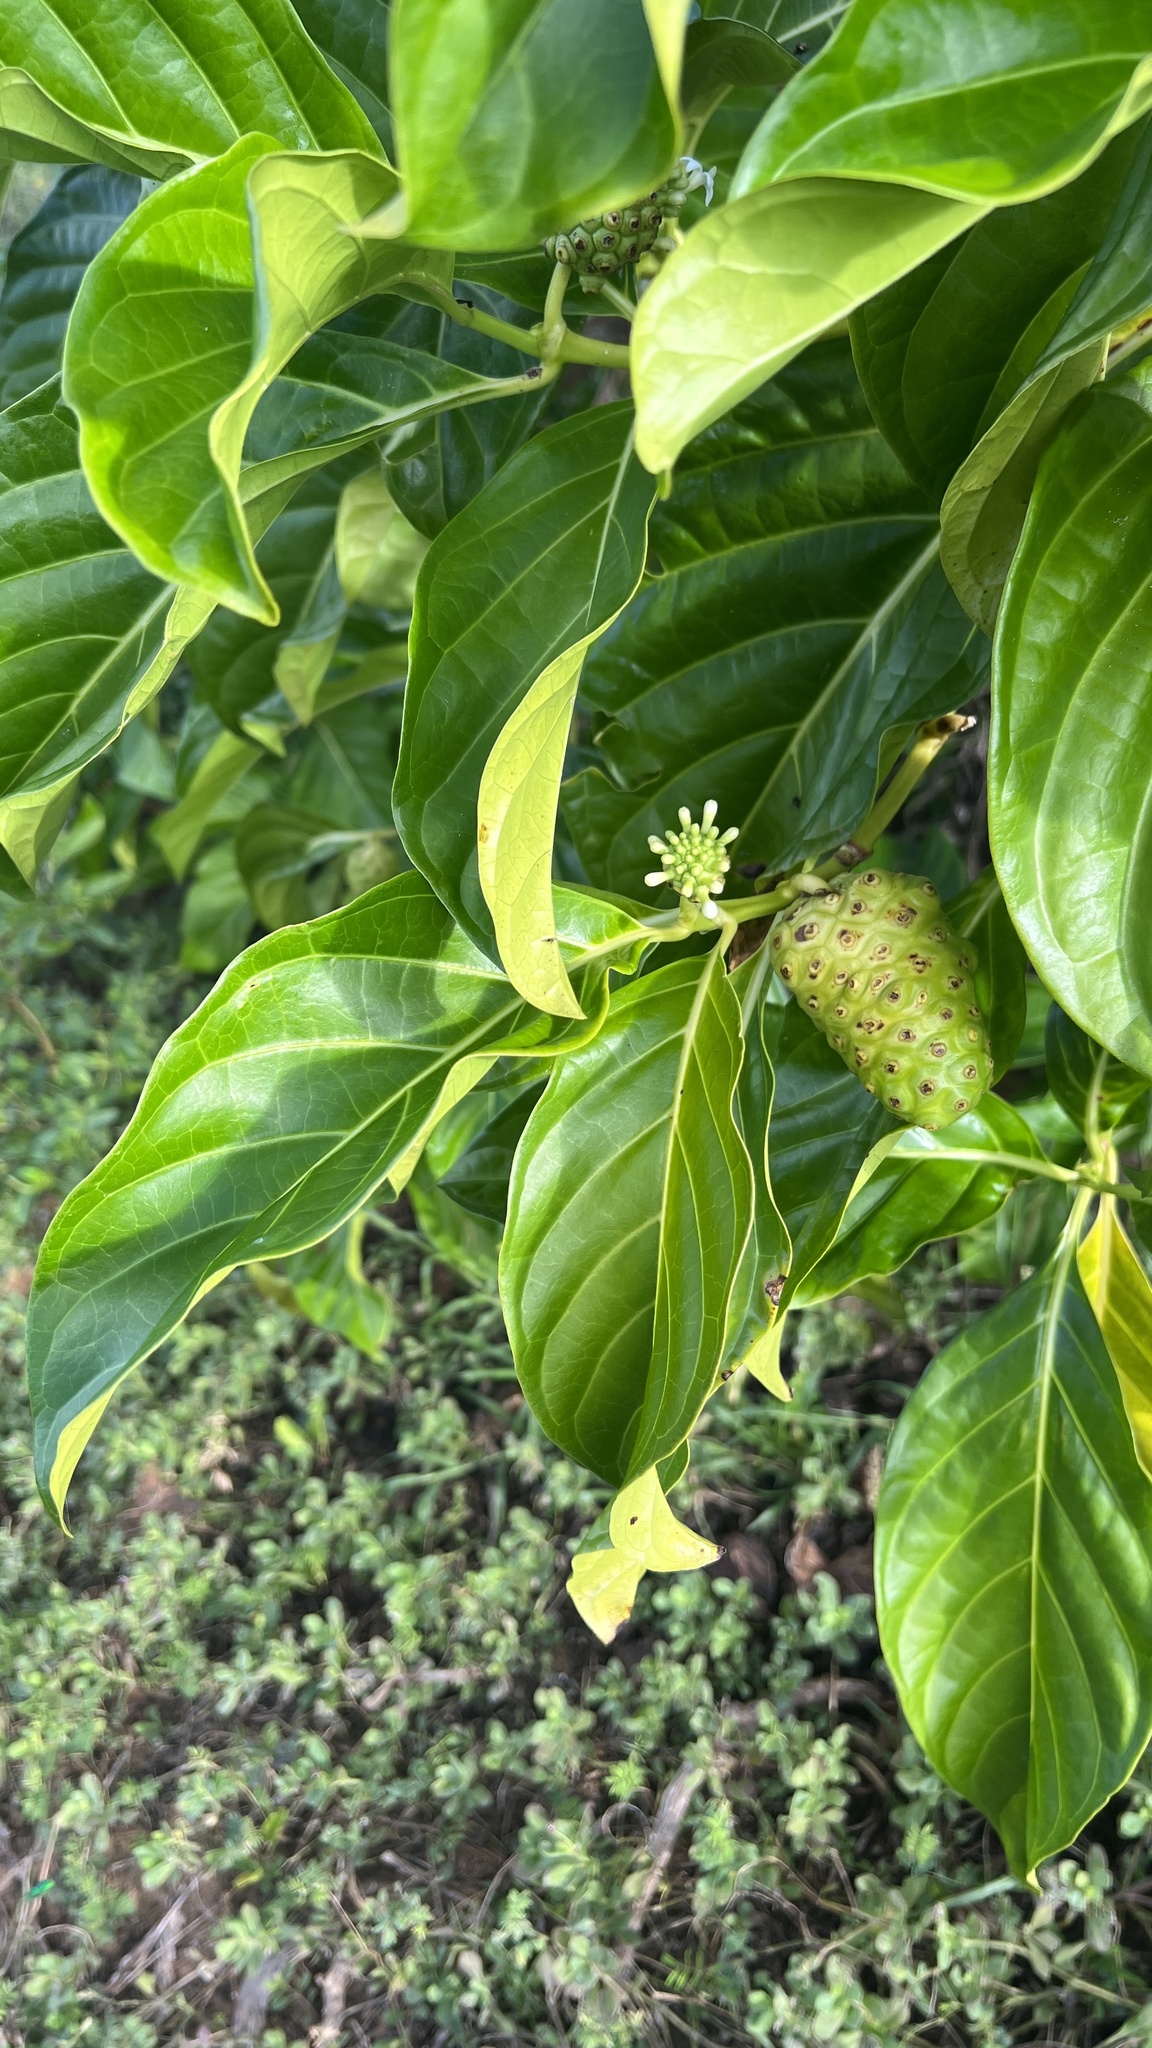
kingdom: Plantae
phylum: Tracheophyta
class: Magnoliopsida
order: Gentianales
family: Rubiaceae
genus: Morinda
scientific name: Morinda citrifolia
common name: Indian-mulberry
